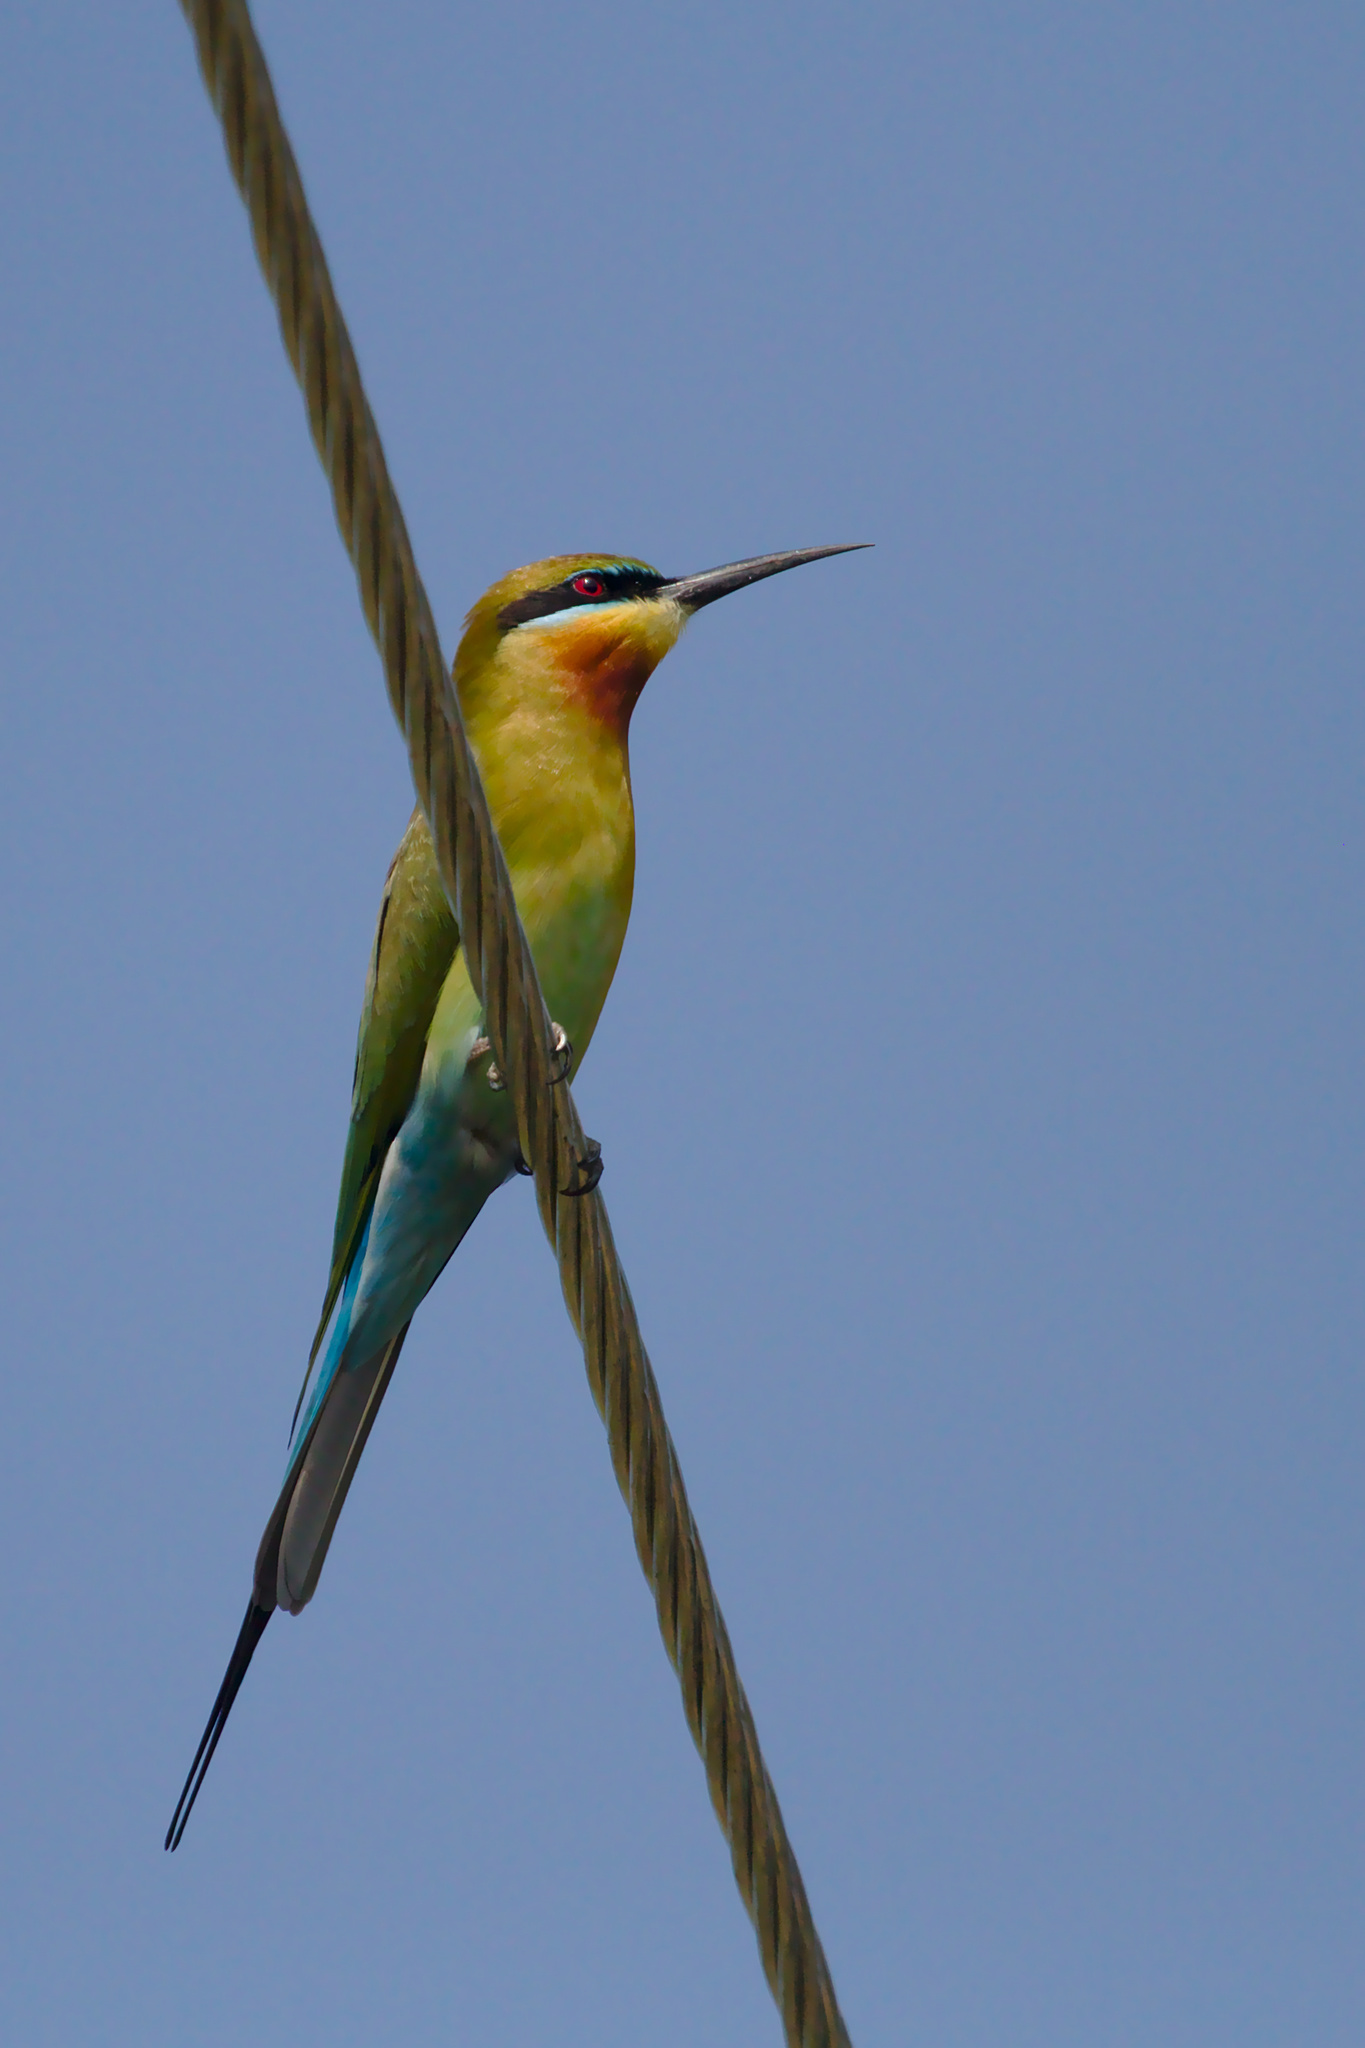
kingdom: Animalia
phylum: Chordata
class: Aves
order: Coraciiformes
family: Meropidae
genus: Merops
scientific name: Merops philippinus
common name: Blue-tailed bee-eater
